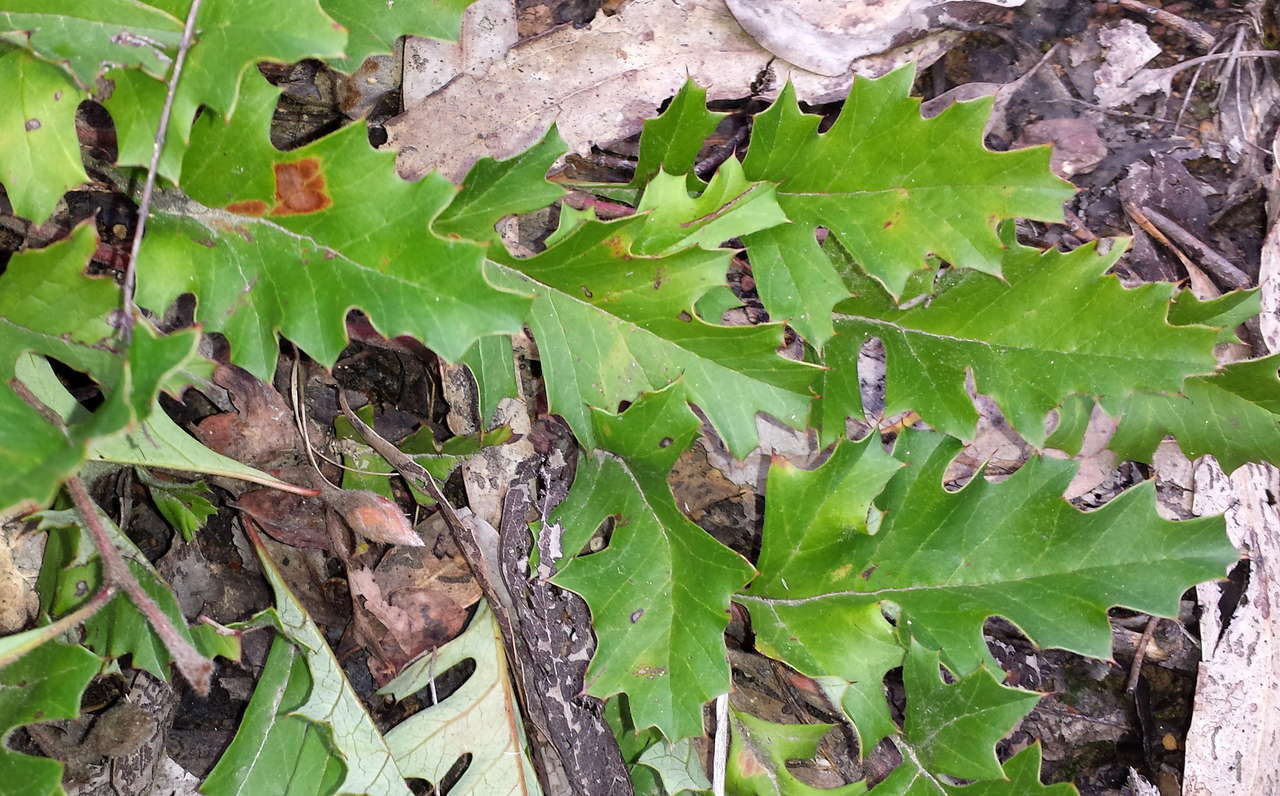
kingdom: Plantae
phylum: Tracheophyta
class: Magnoliopsida
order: Proteales
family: Proteaceae
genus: Grevillea
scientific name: Grevillea obtecta
